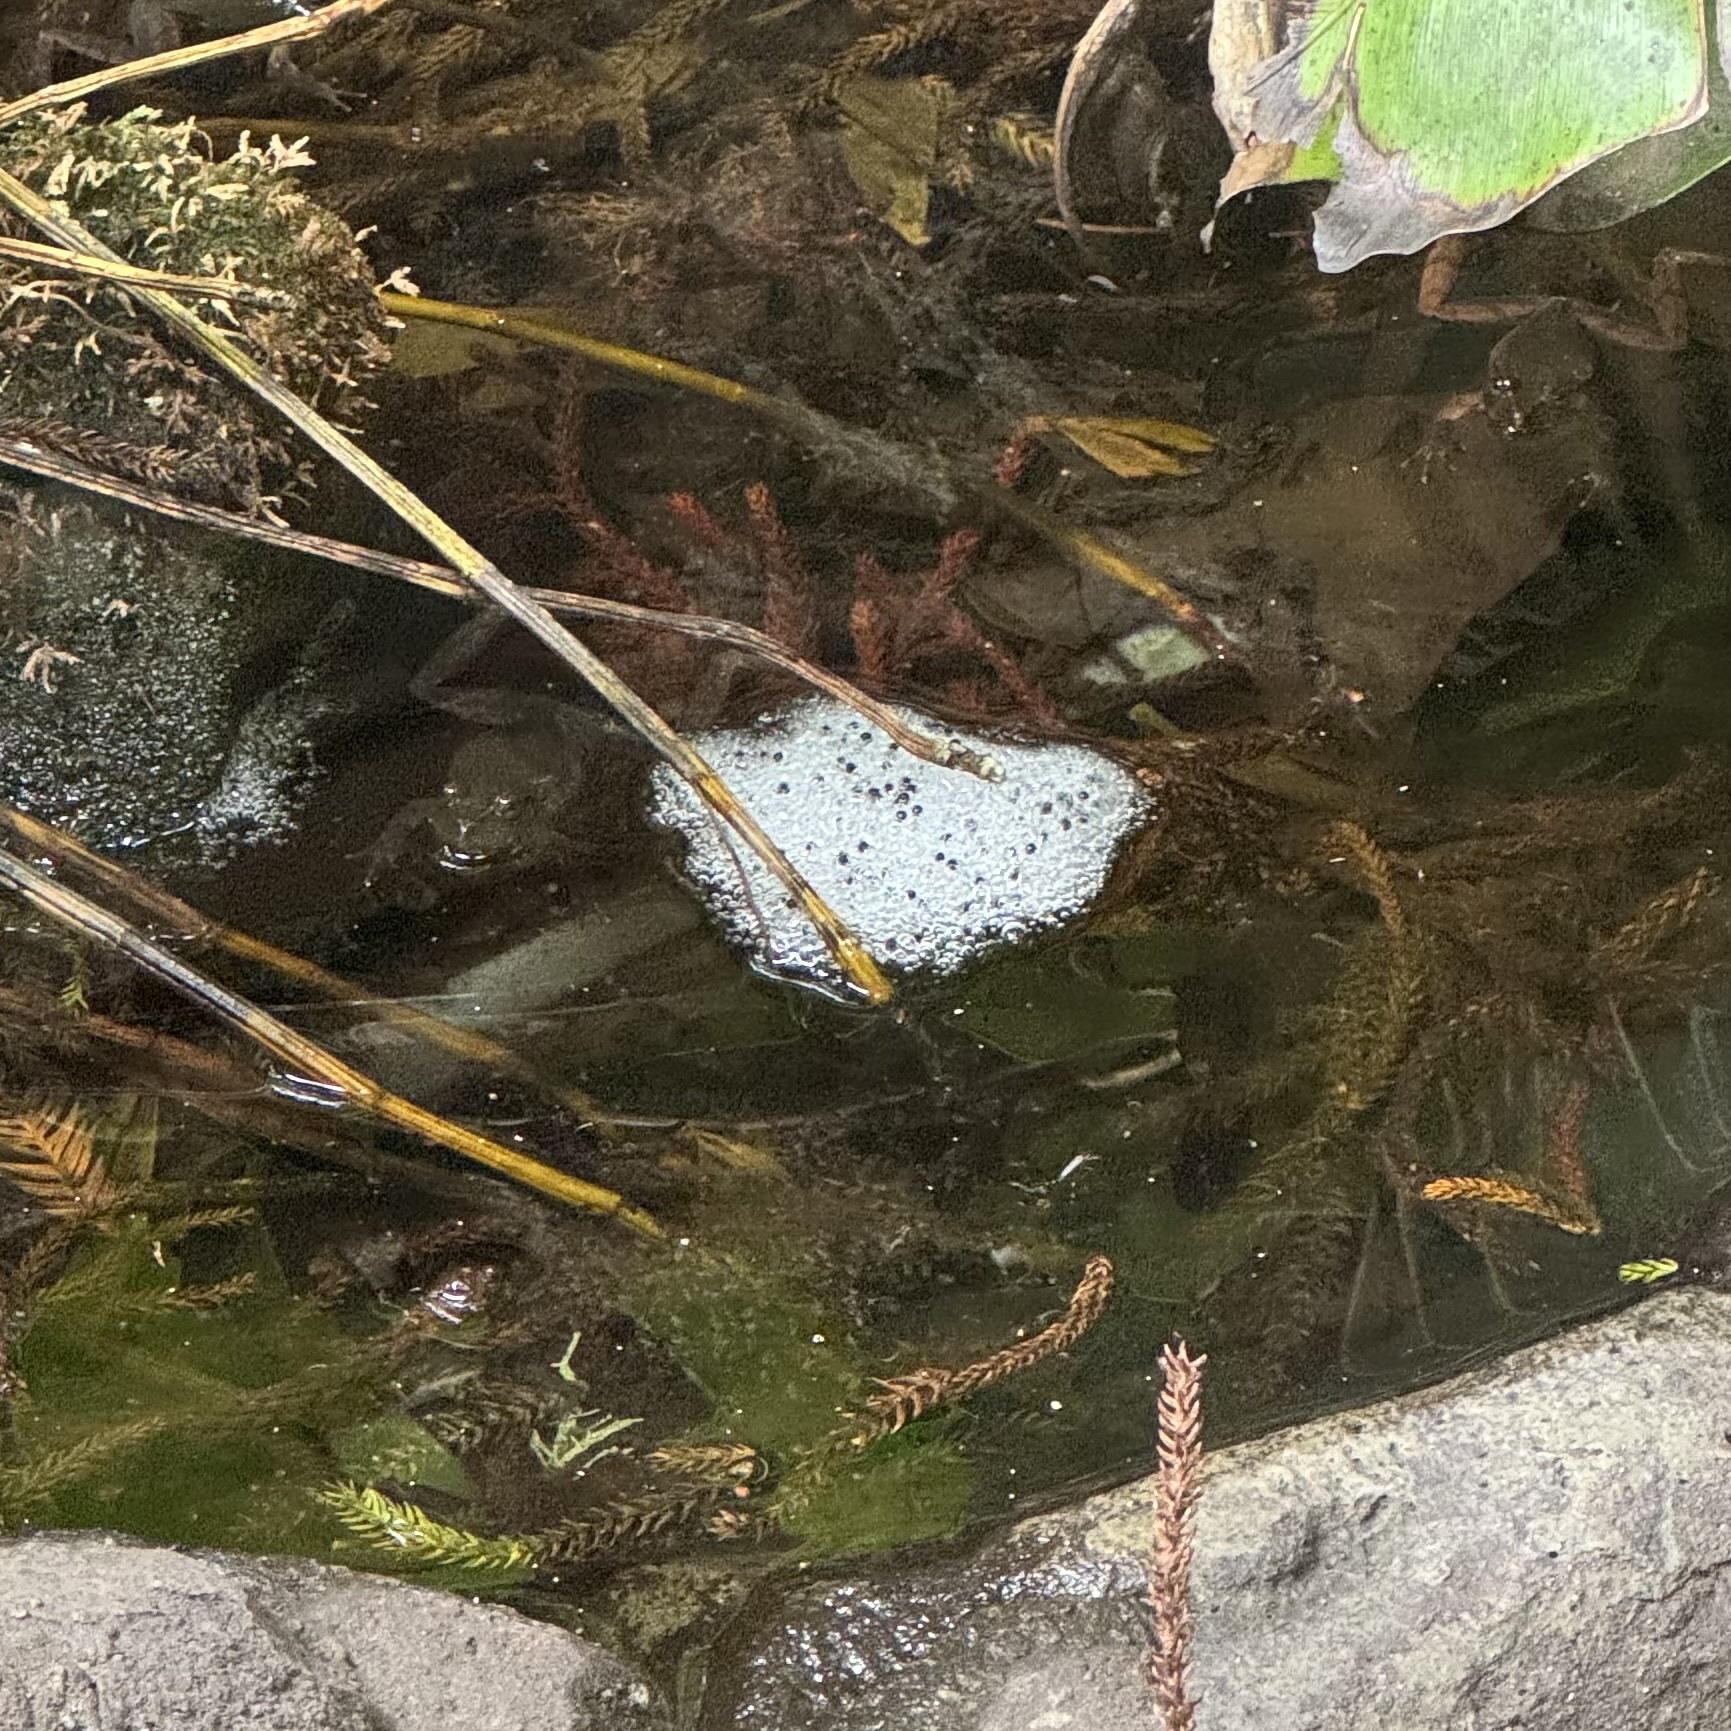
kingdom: Animalia
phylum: Chordata
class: Amphibia
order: Anura
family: Limnodynastidae
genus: Platyplectrum
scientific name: Platyplectrum
